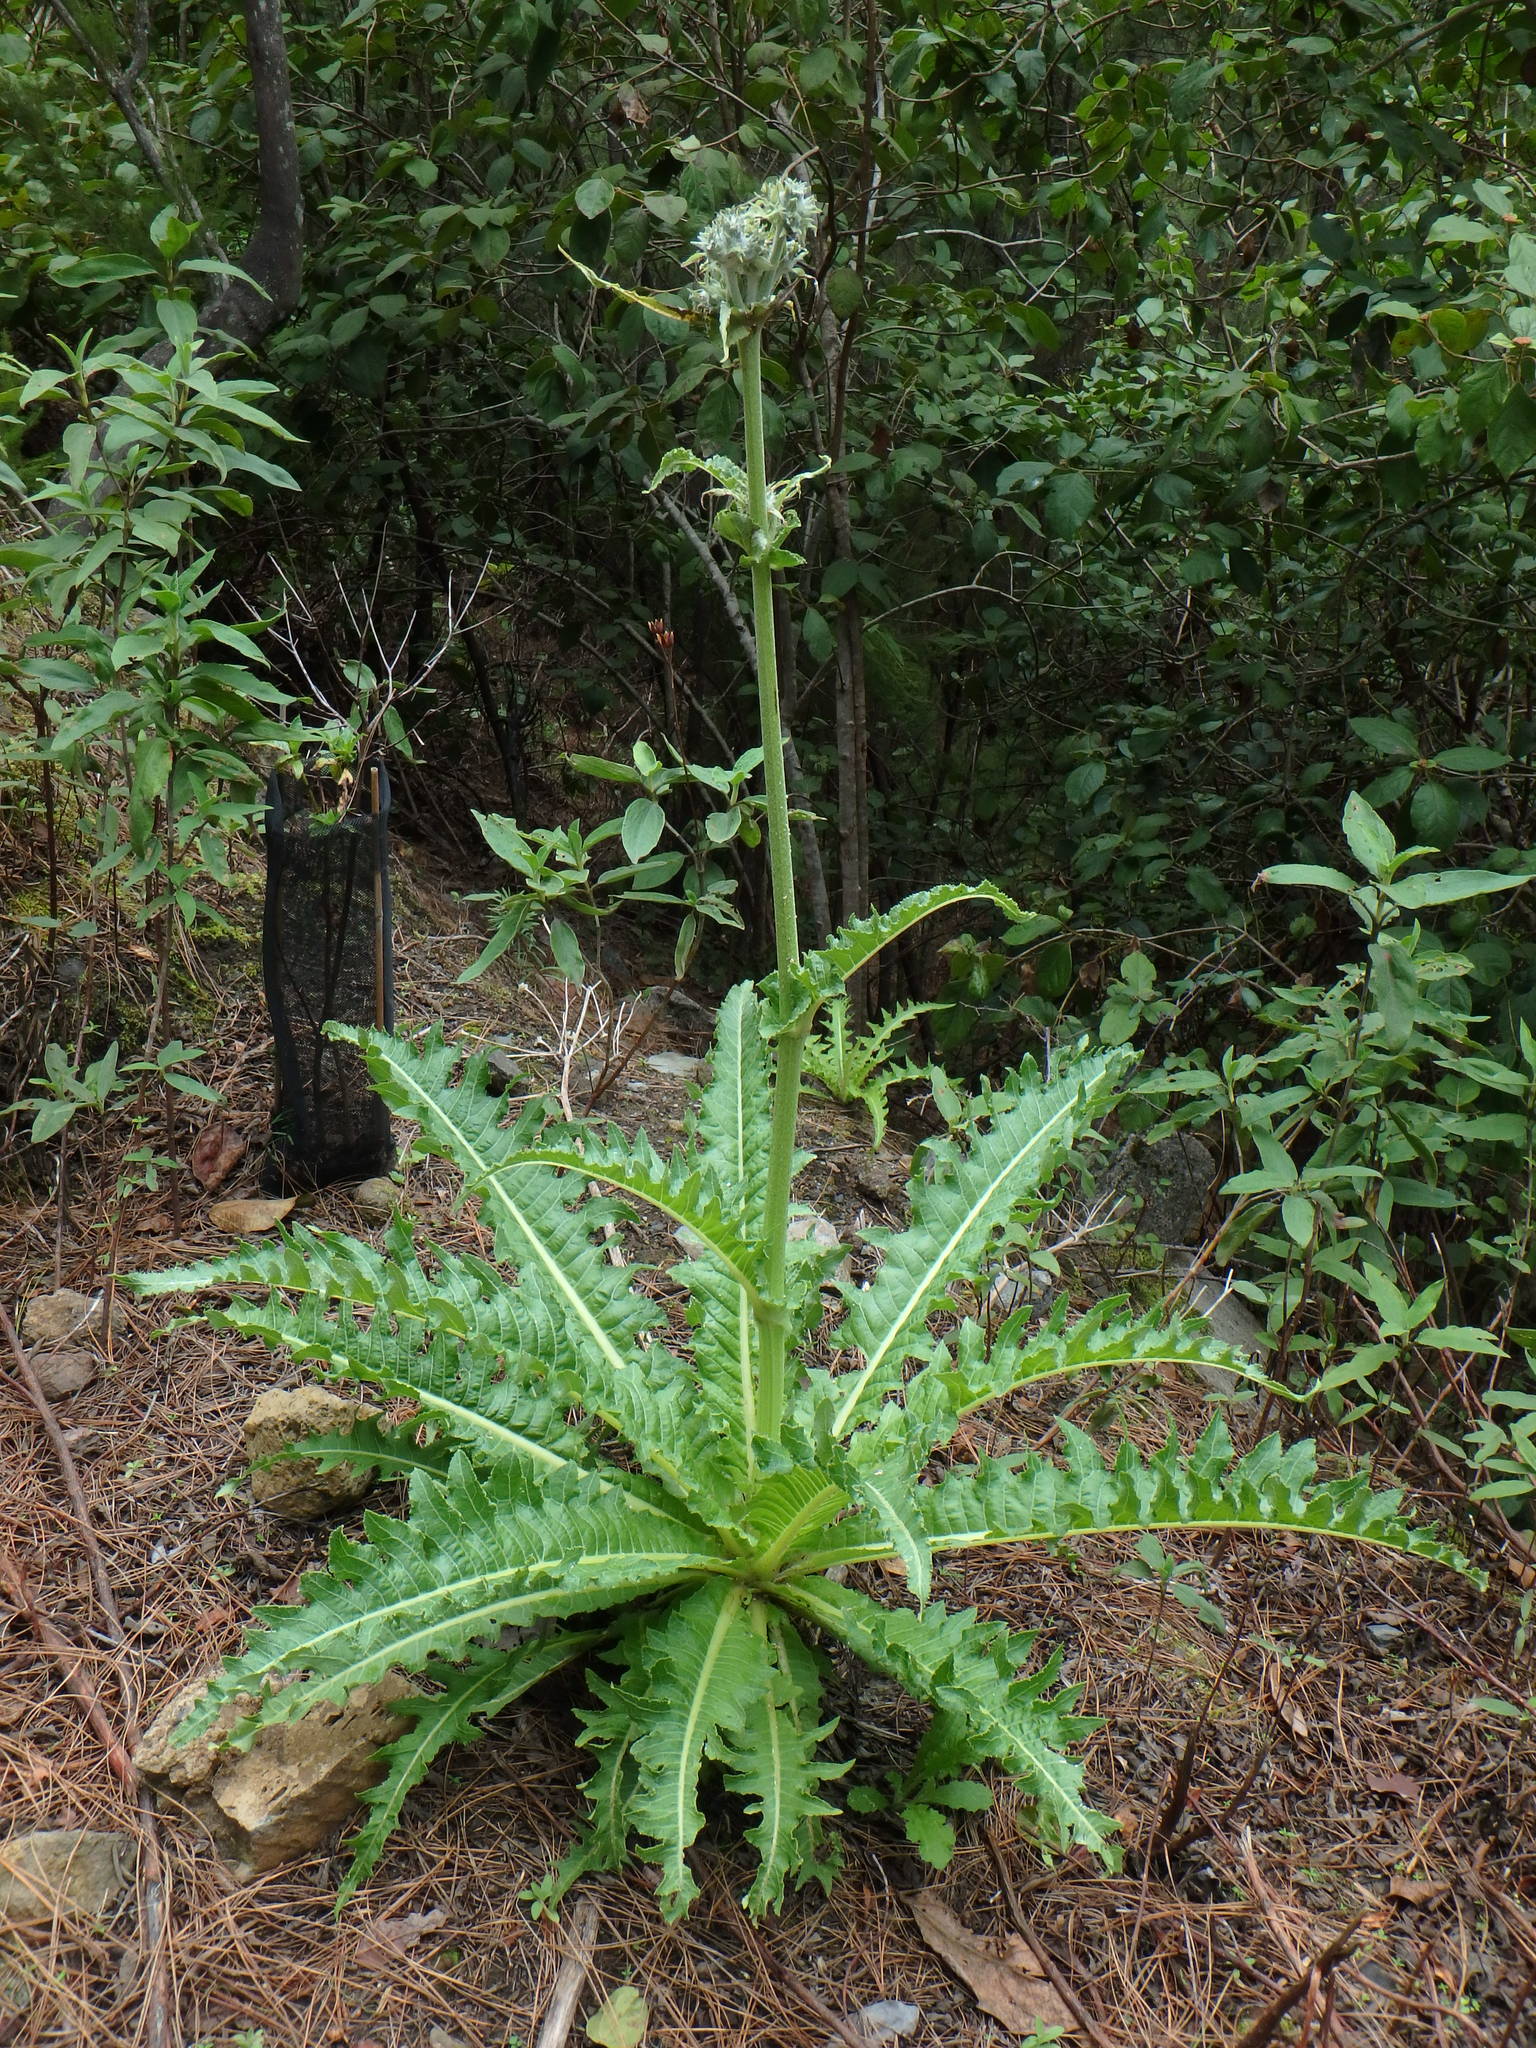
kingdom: Plantae
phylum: Tracheophyta
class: Magnoliopsida
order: Asterales
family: Asteraceae
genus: Sonchus
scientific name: Sonchus acaulis
